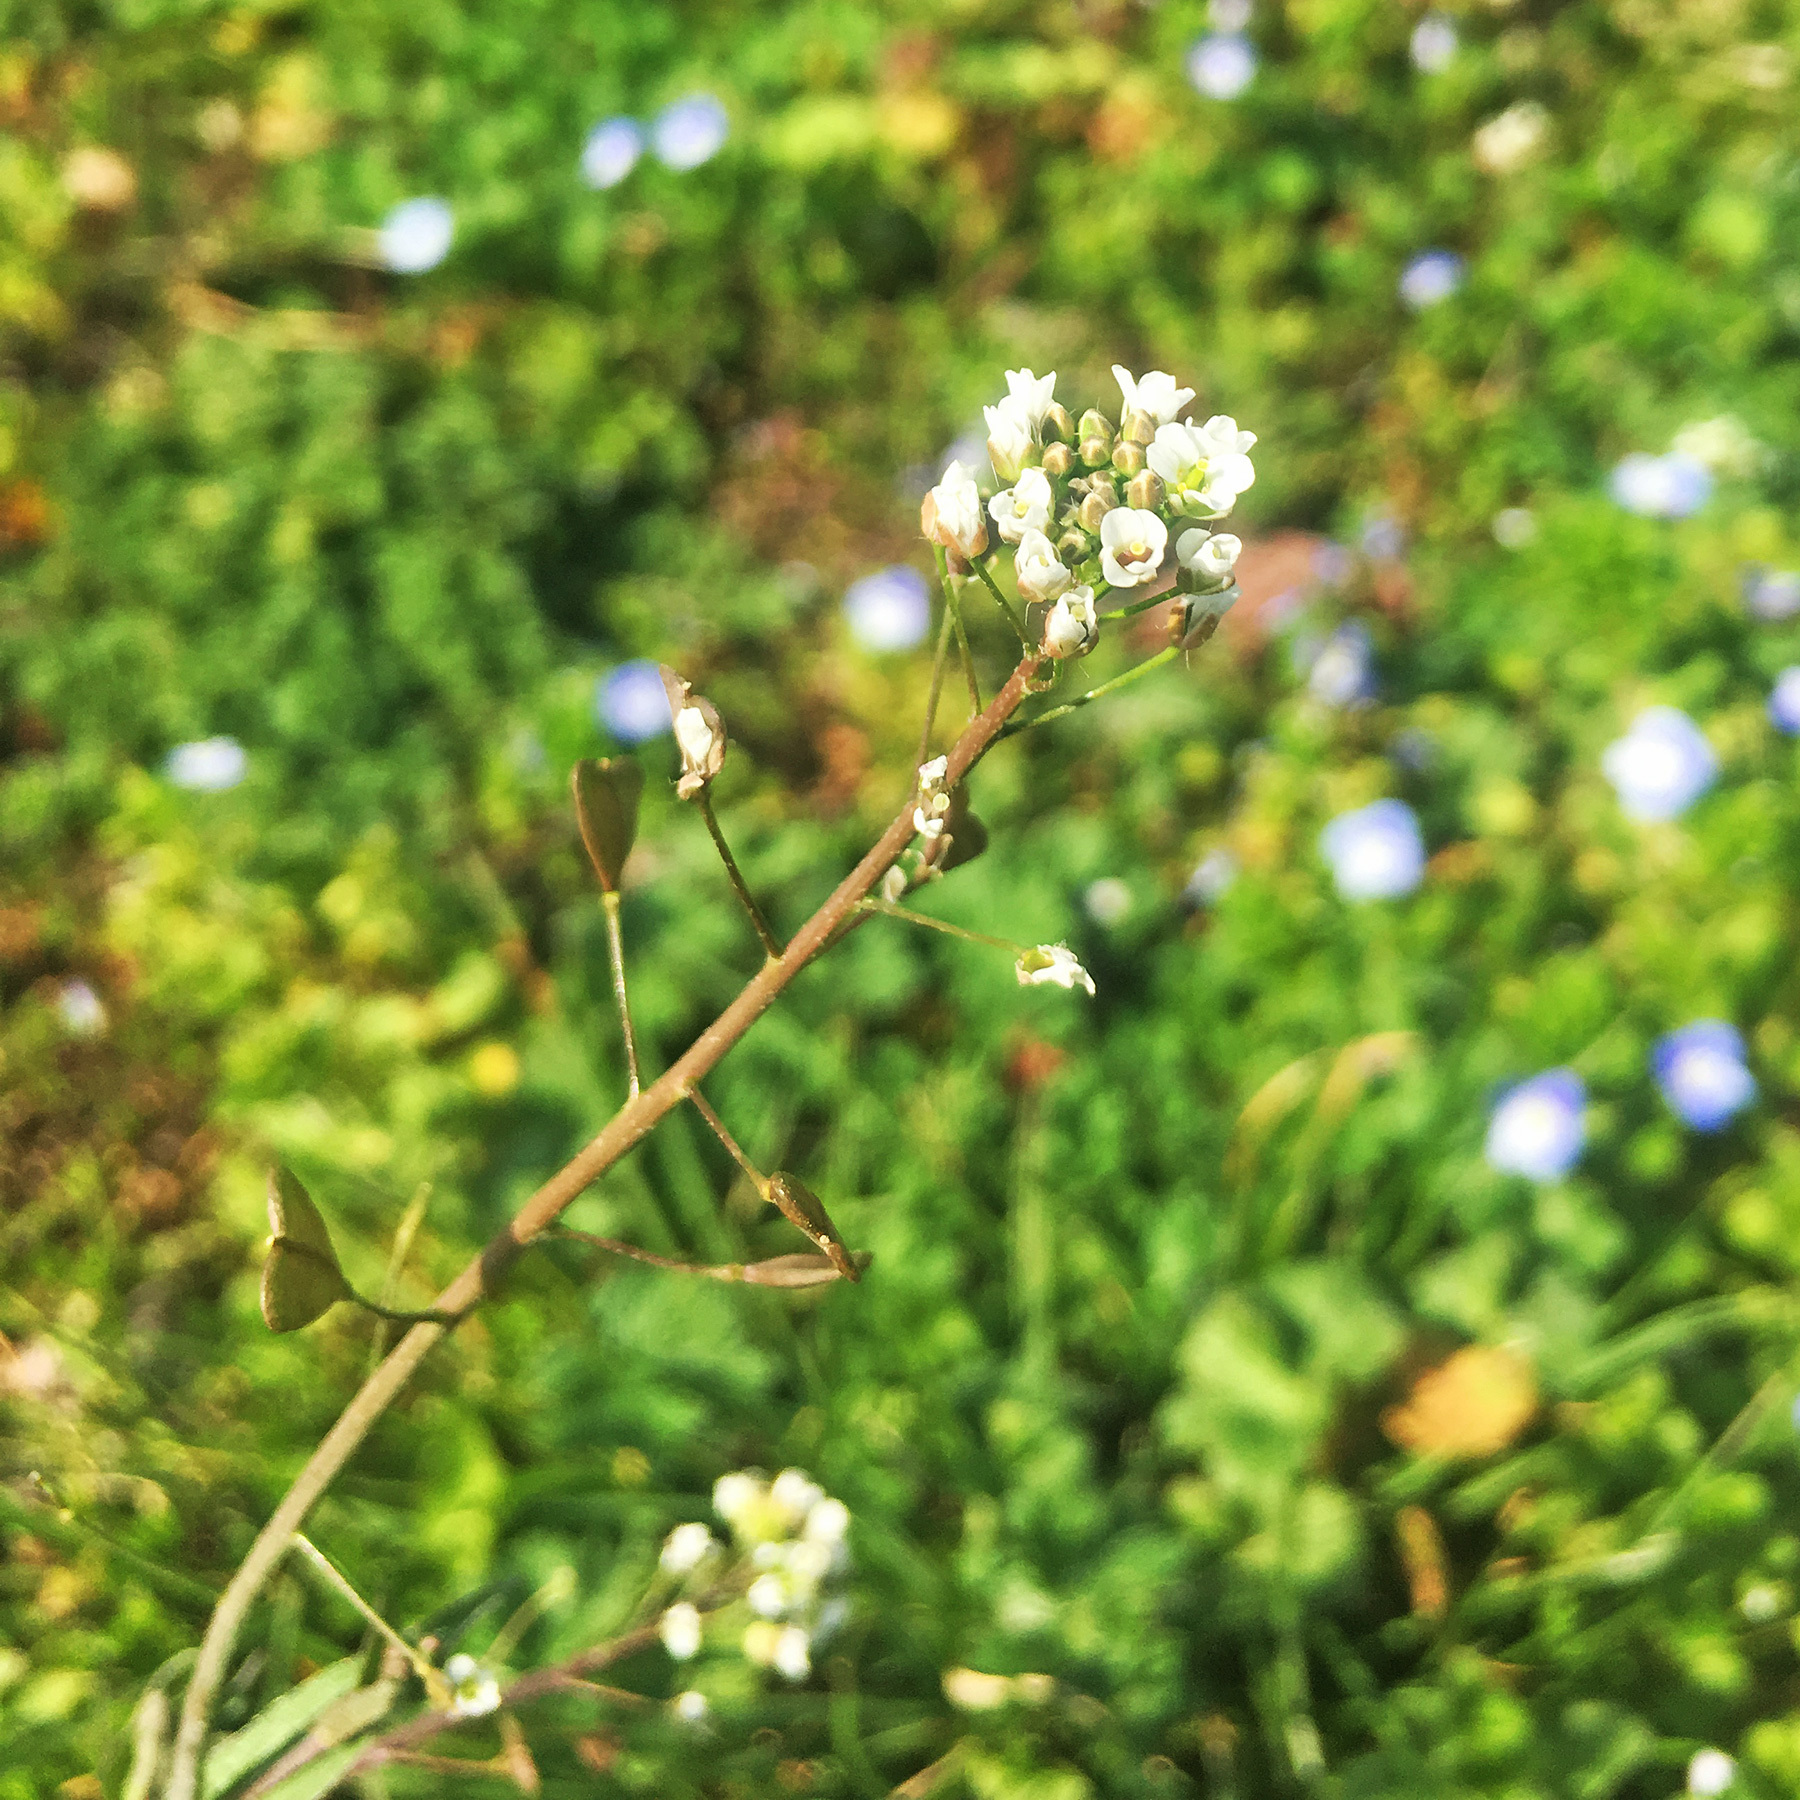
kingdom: Plantae
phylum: Tracheophyta
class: Magnoliopsida
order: Brassicales
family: Brassicaceae
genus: Capsella
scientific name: Capsella bursa-pastoris
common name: Shepherd's purse
